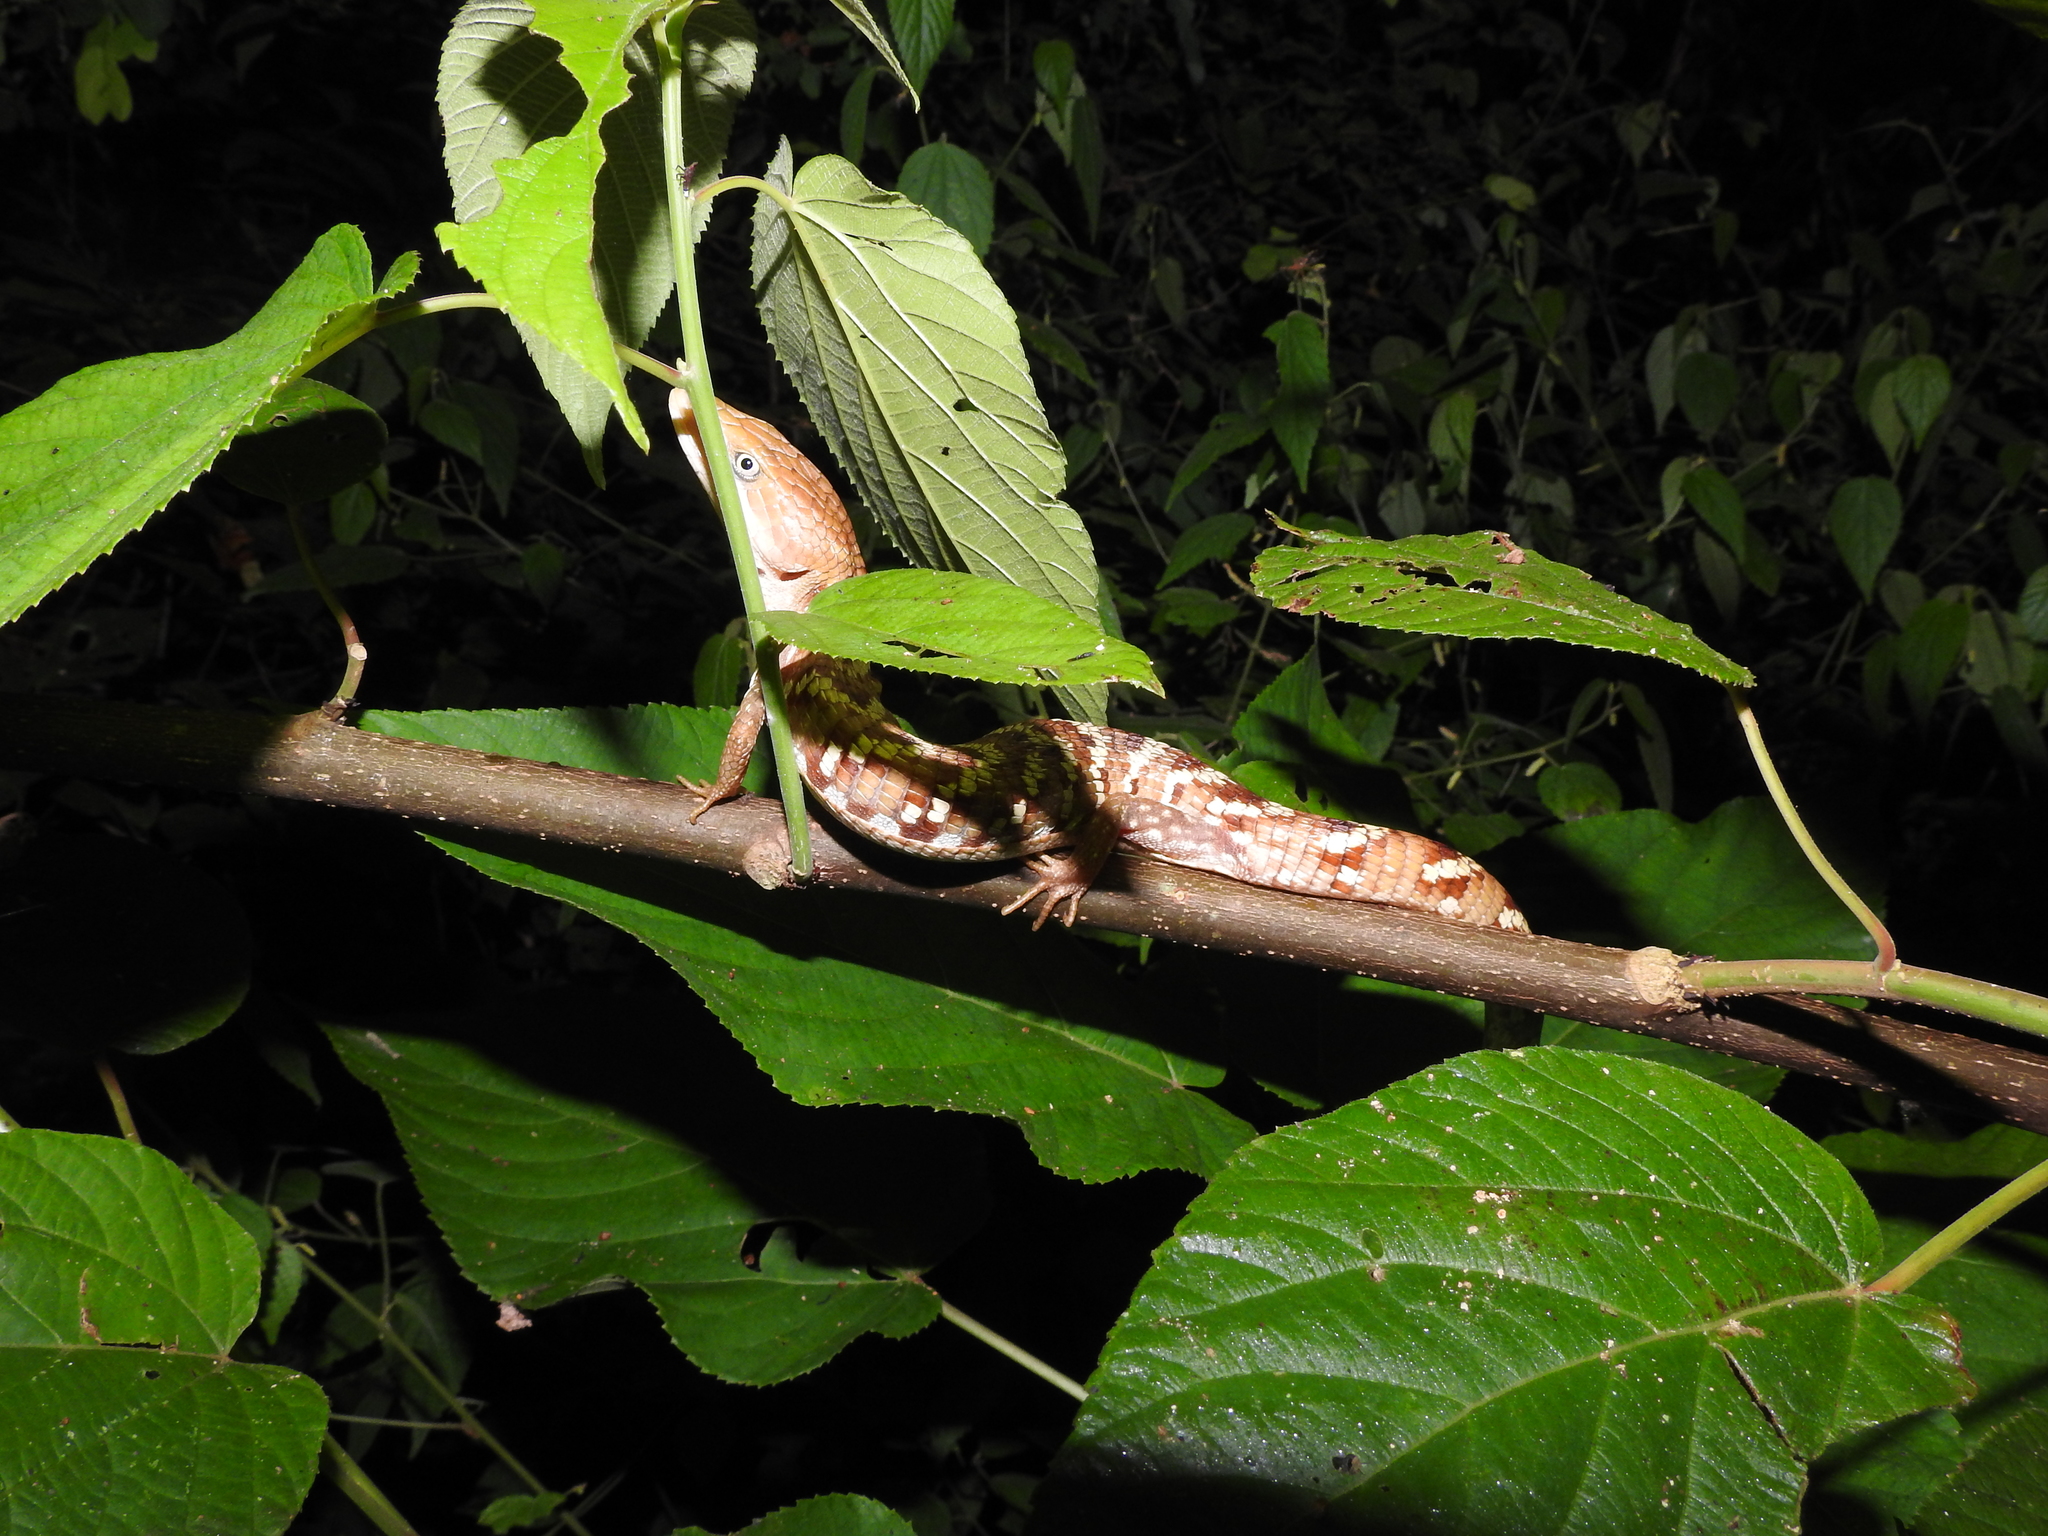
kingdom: Animalia
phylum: Chordata
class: Squamata
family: Anguidae
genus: Gerrhonotus
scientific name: Gerrhonotus liocephalus
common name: Texas alligator lizard
